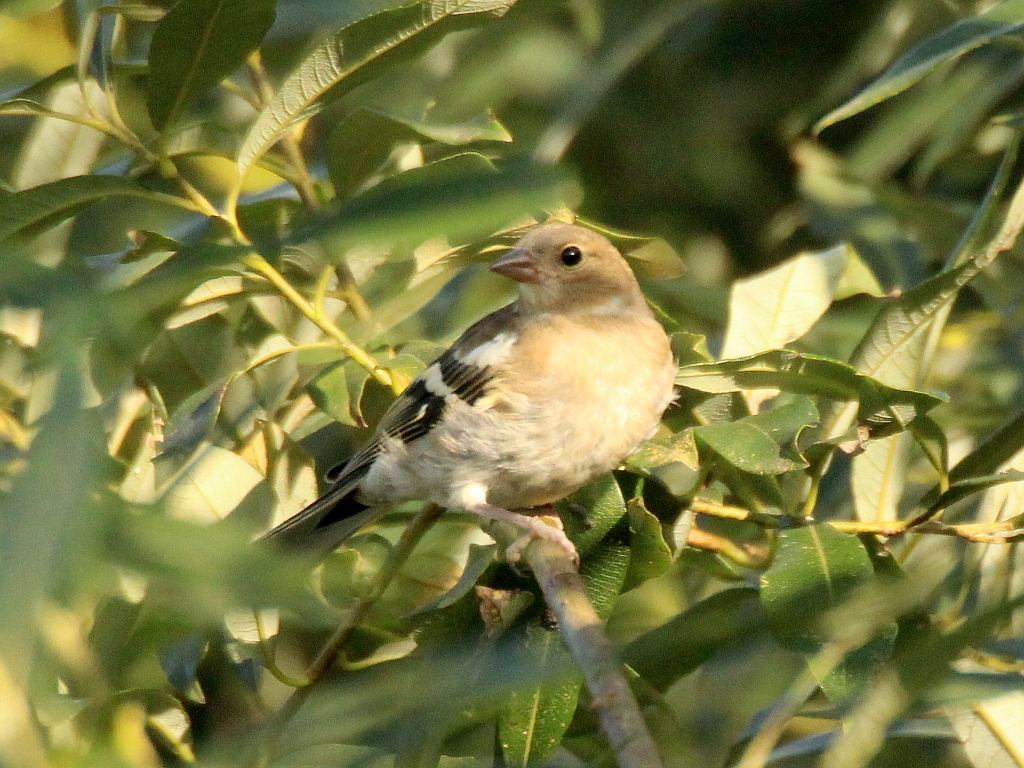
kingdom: Animalia
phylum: Chordata
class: Aves
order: Passeriformes
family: Fringillidae
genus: Fringilla
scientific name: Fringilla coelebs
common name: Common chaffinch
